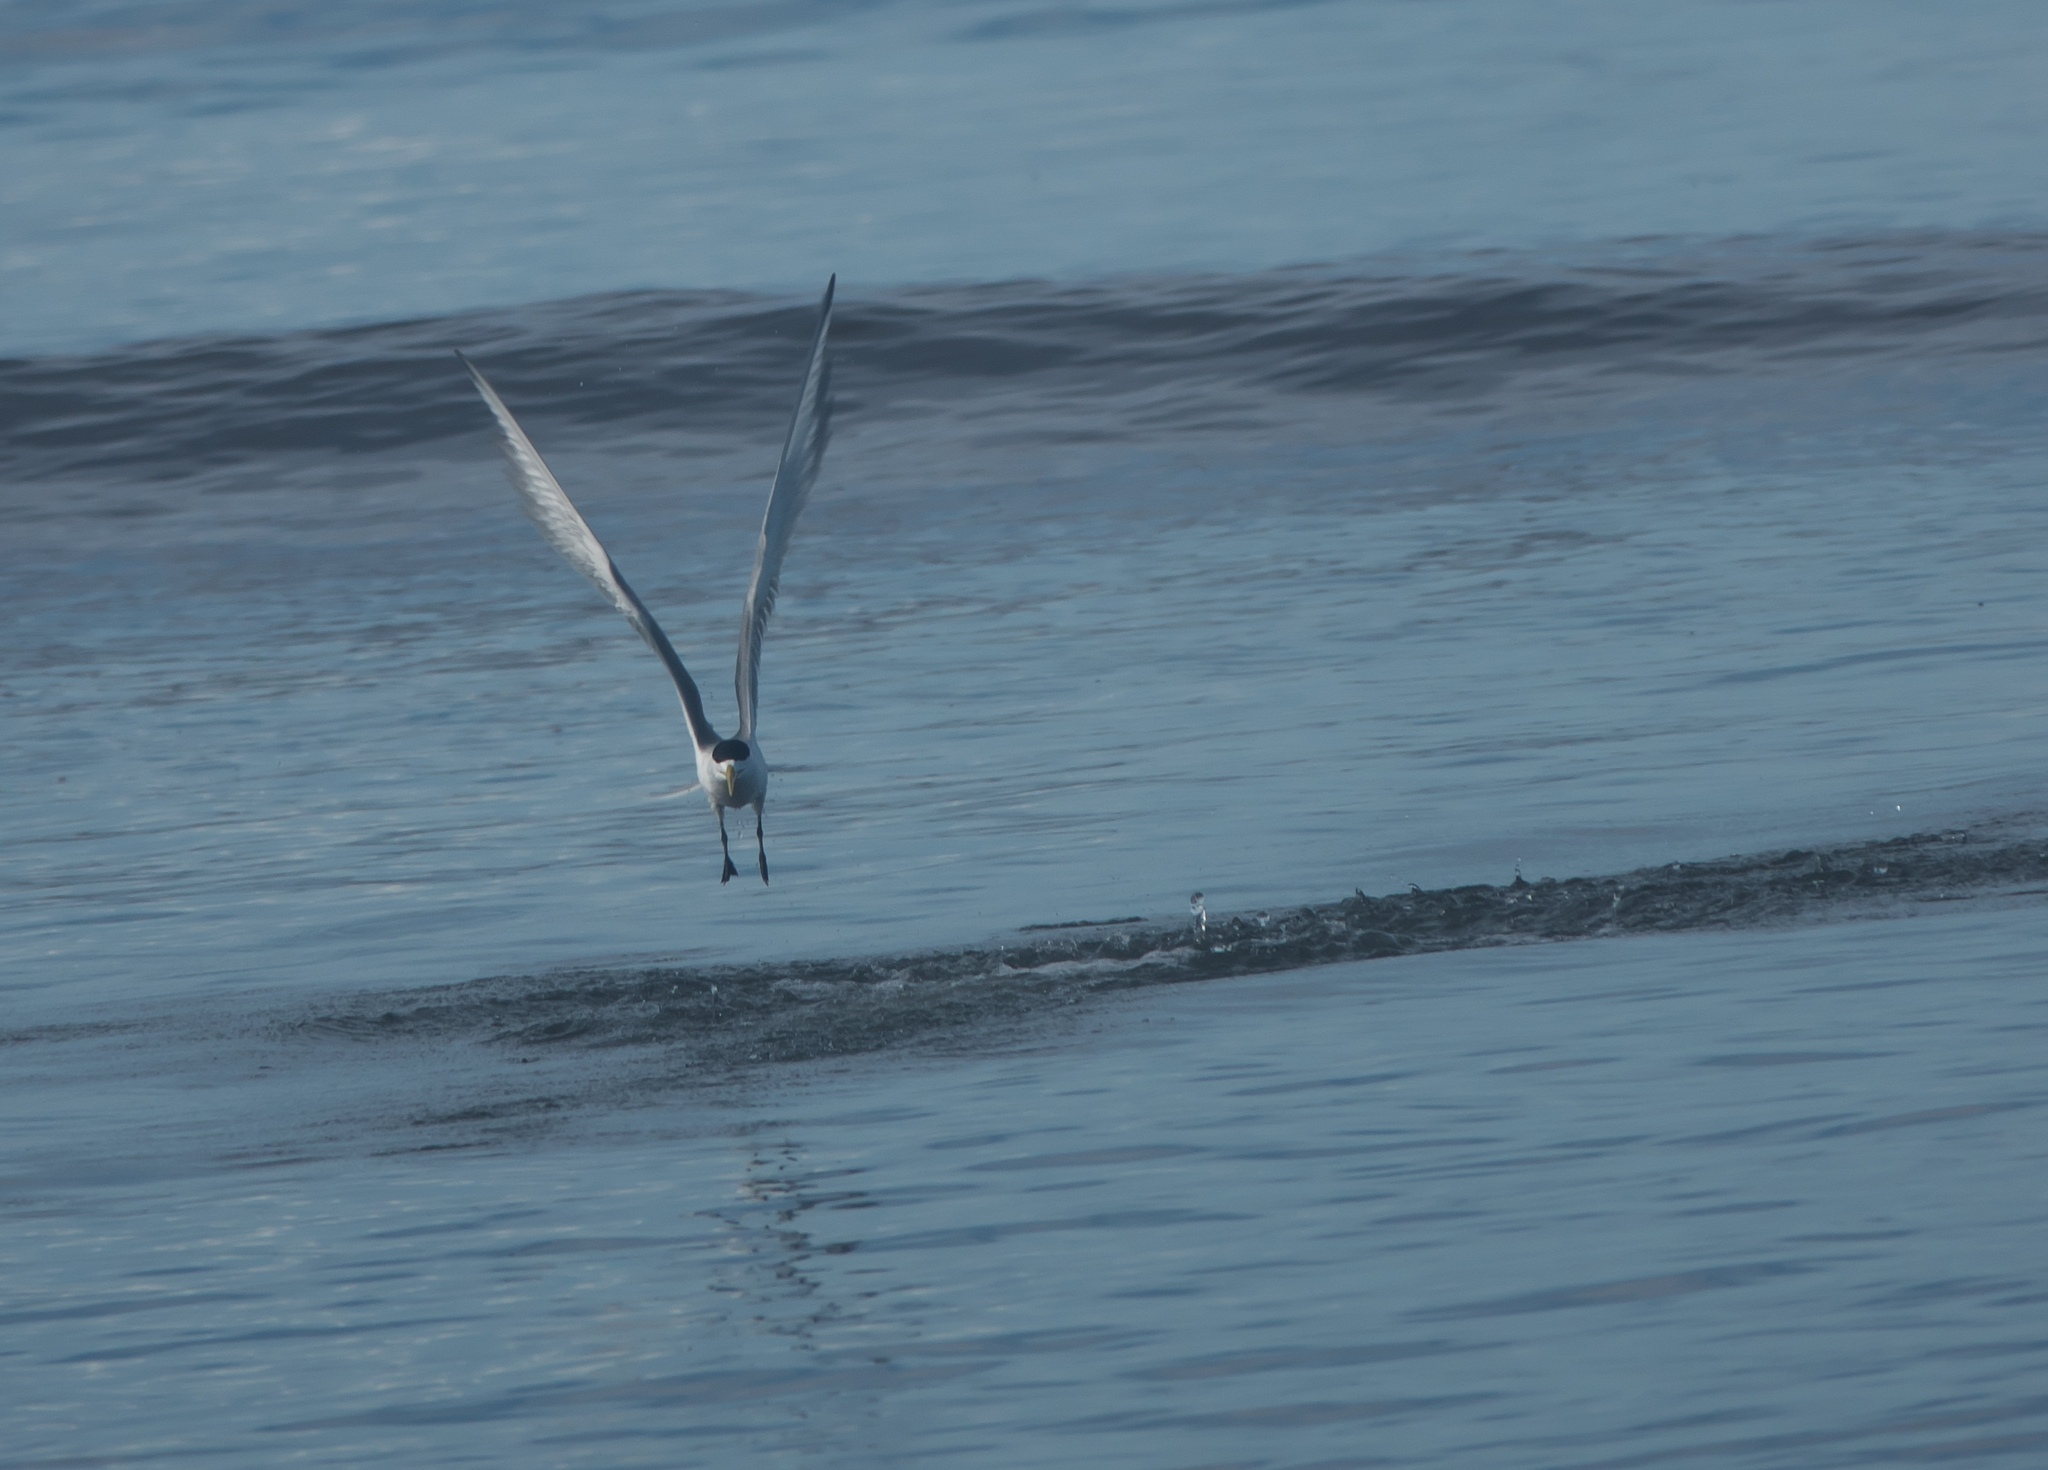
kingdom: Animalia
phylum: Chordata
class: Aves
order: Charadriiformes
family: Laridae
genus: Thalasseus
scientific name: Thalasseus bergii
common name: Greater crested tern
